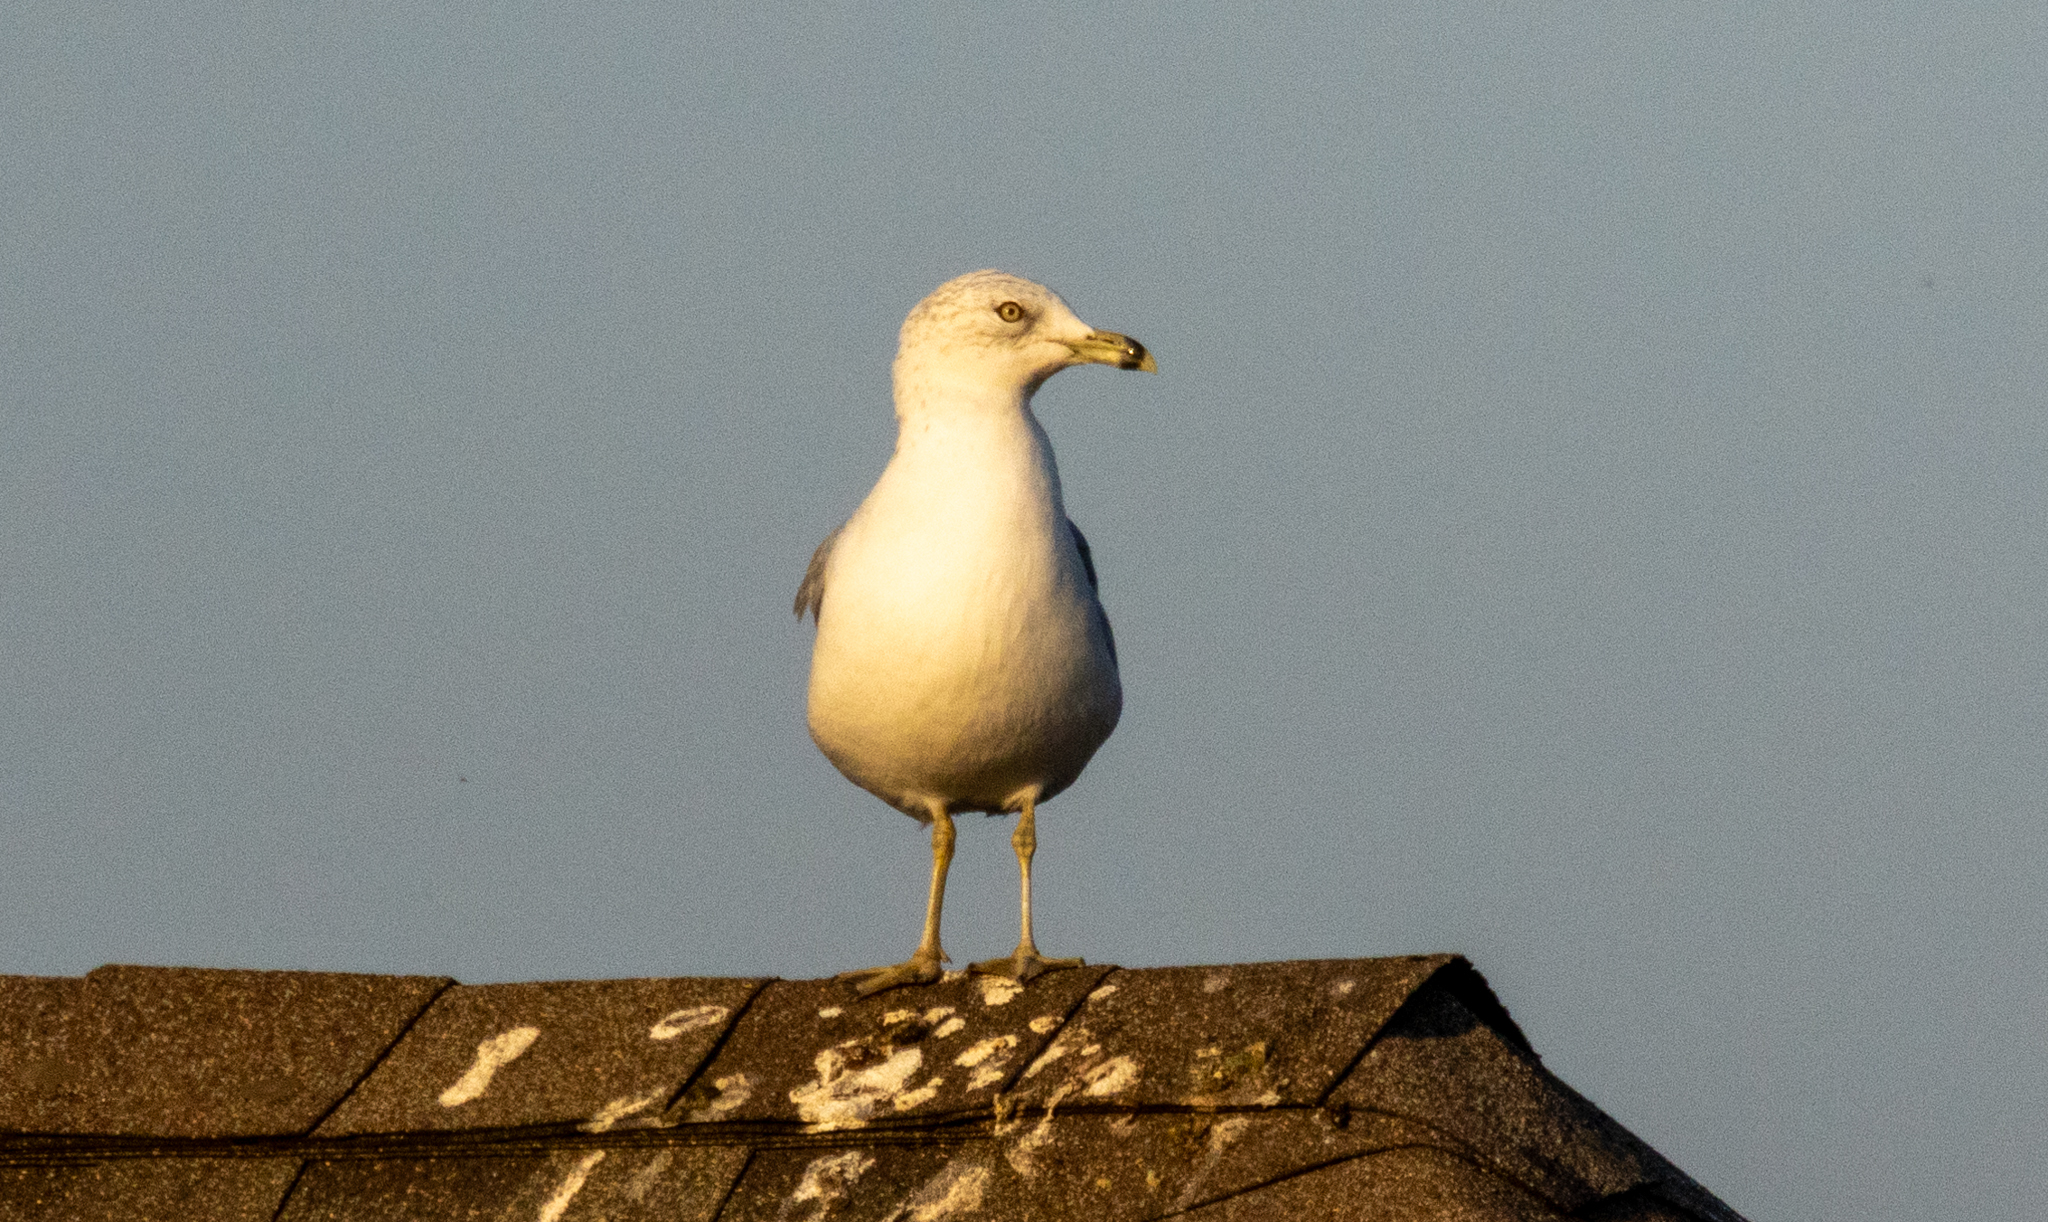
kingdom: Animalia
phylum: Chordata
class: Aves
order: Charadriiformes
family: Laridae
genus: Larus
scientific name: Larus delawarensis
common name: Ring-billed gull
